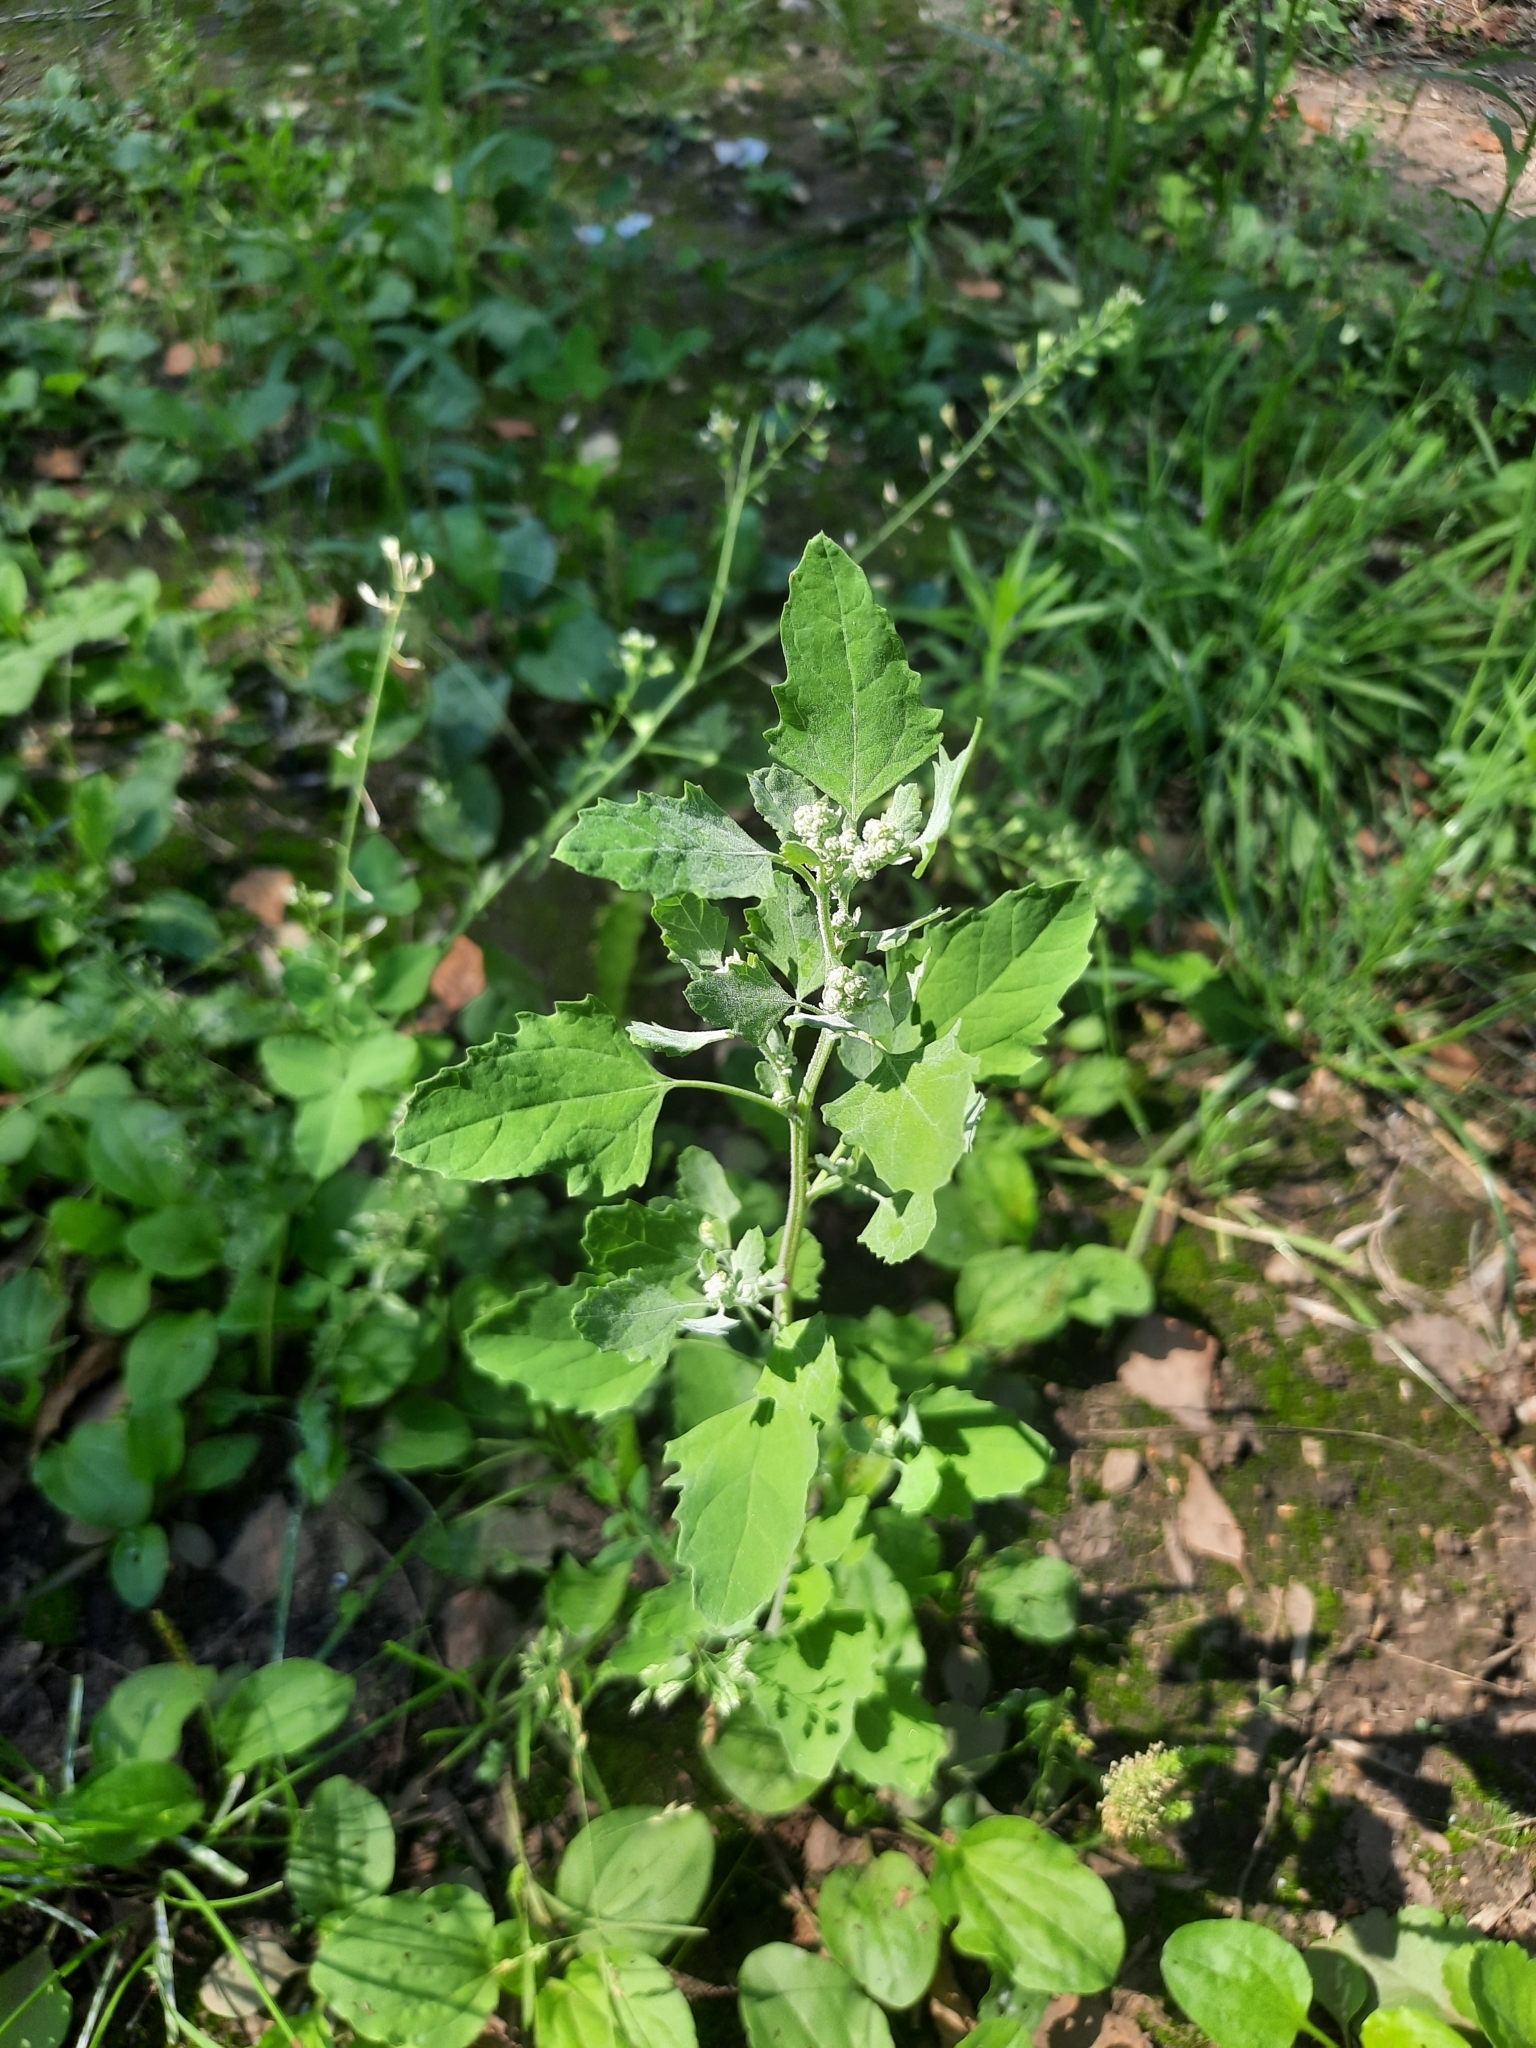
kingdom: Plantae
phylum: Tracheophyta
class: Magnoliopsida
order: Caryophyllales
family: Amaranthaceae
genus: Chenopodium
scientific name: Chenopodium album
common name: Fat-hen
